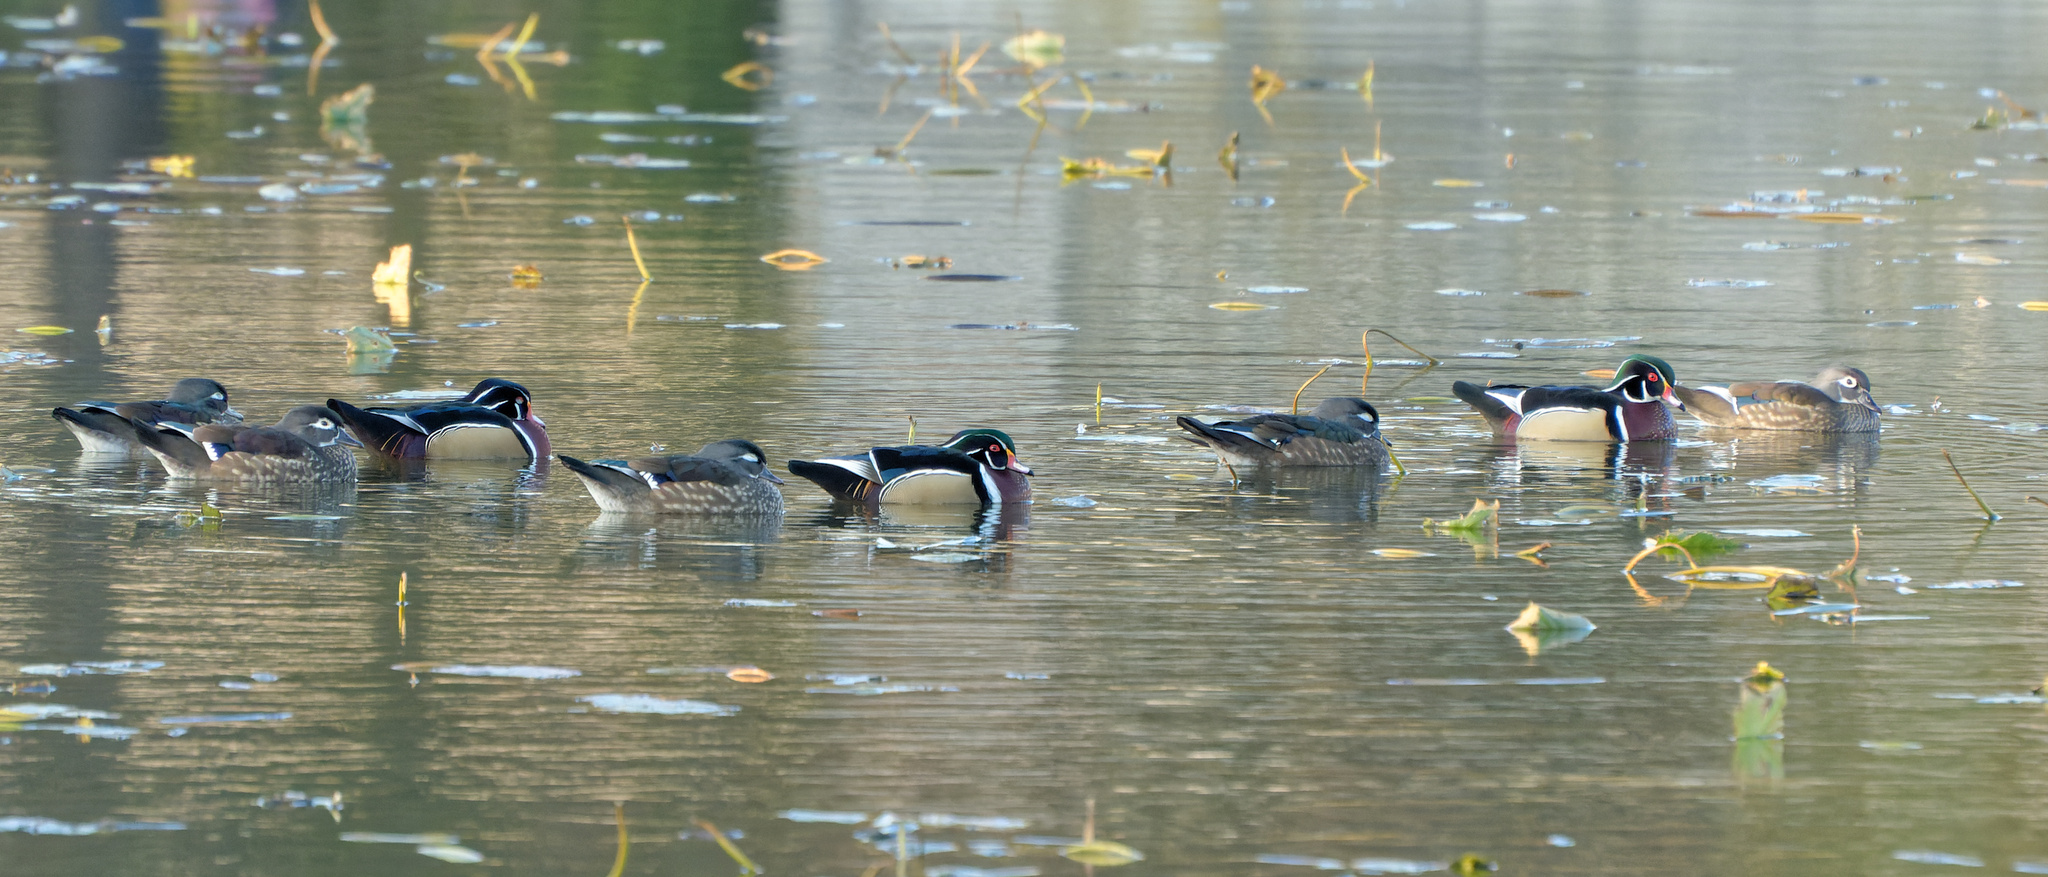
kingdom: Animalia
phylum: Chordata
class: Aves
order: Anseriformes
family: Anatidae
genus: Aix
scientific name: Aix sponsa
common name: Wood duck
